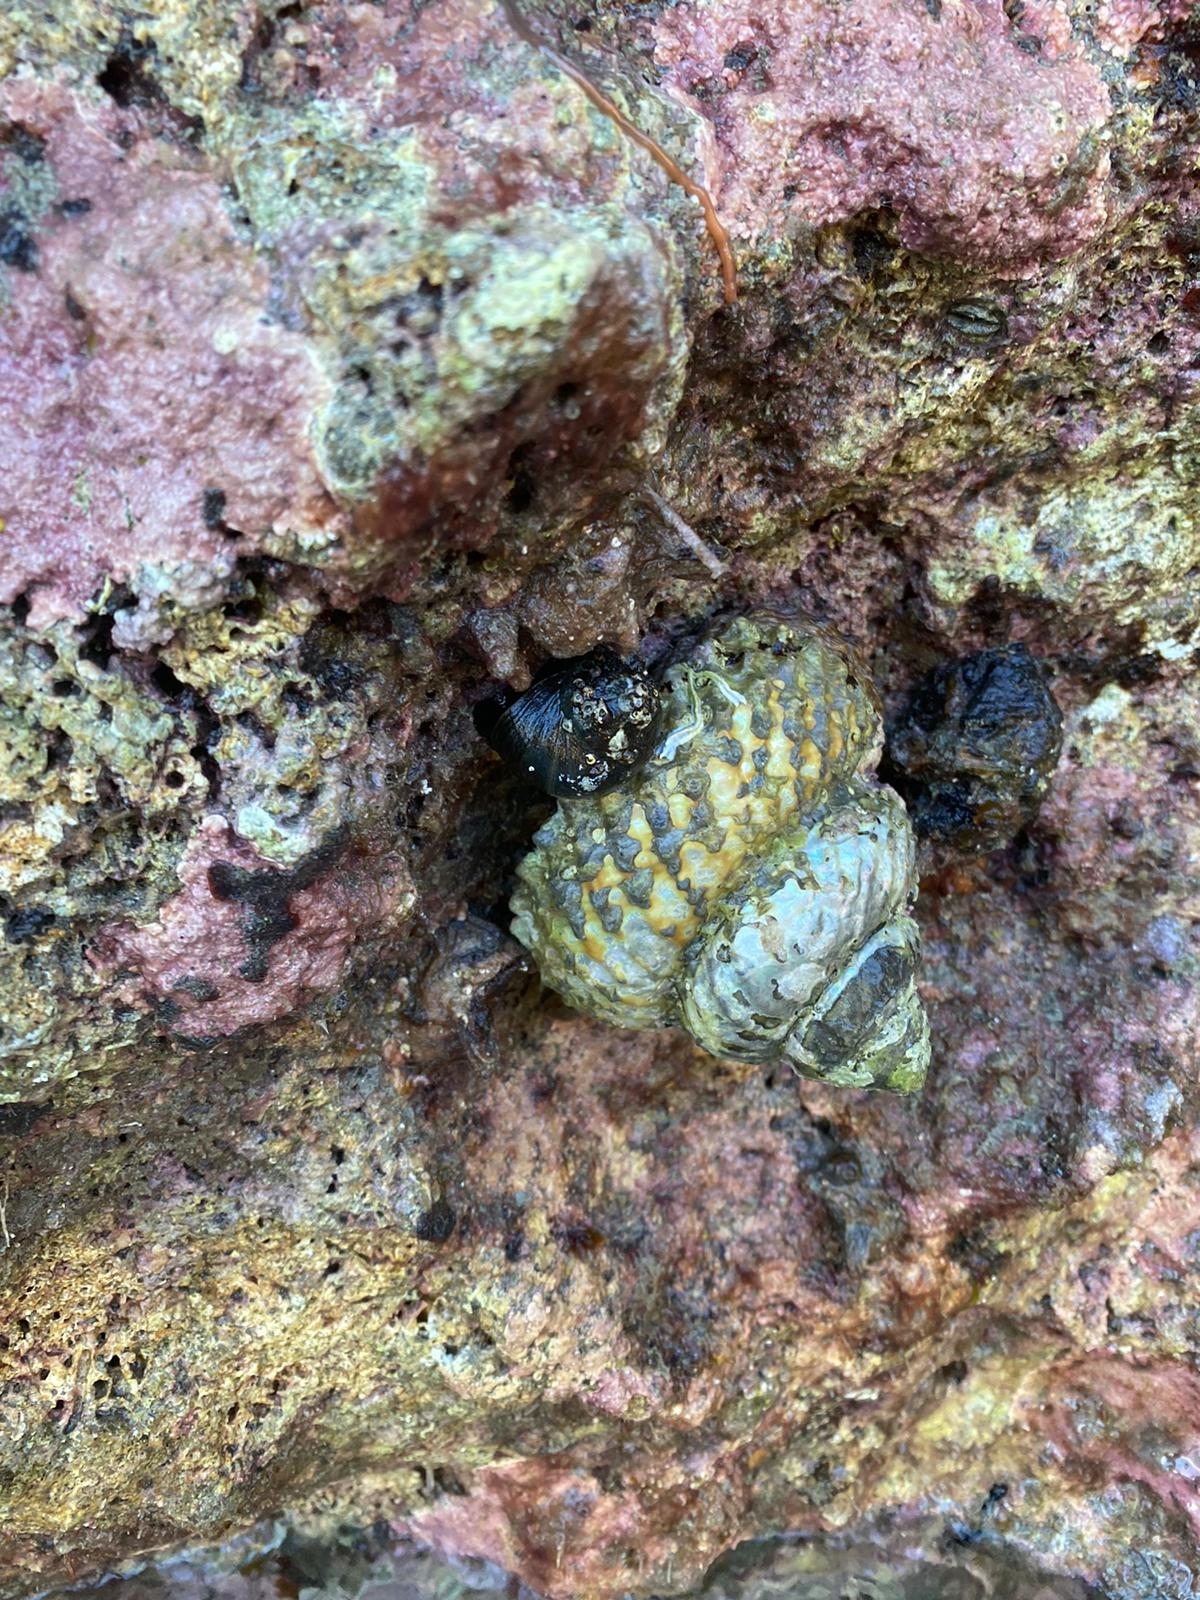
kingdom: Animalia
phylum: Mollusca
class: Gastropoda
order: Trochida
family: Turbinidae
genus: Cookia
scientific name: Cookia sulcata
